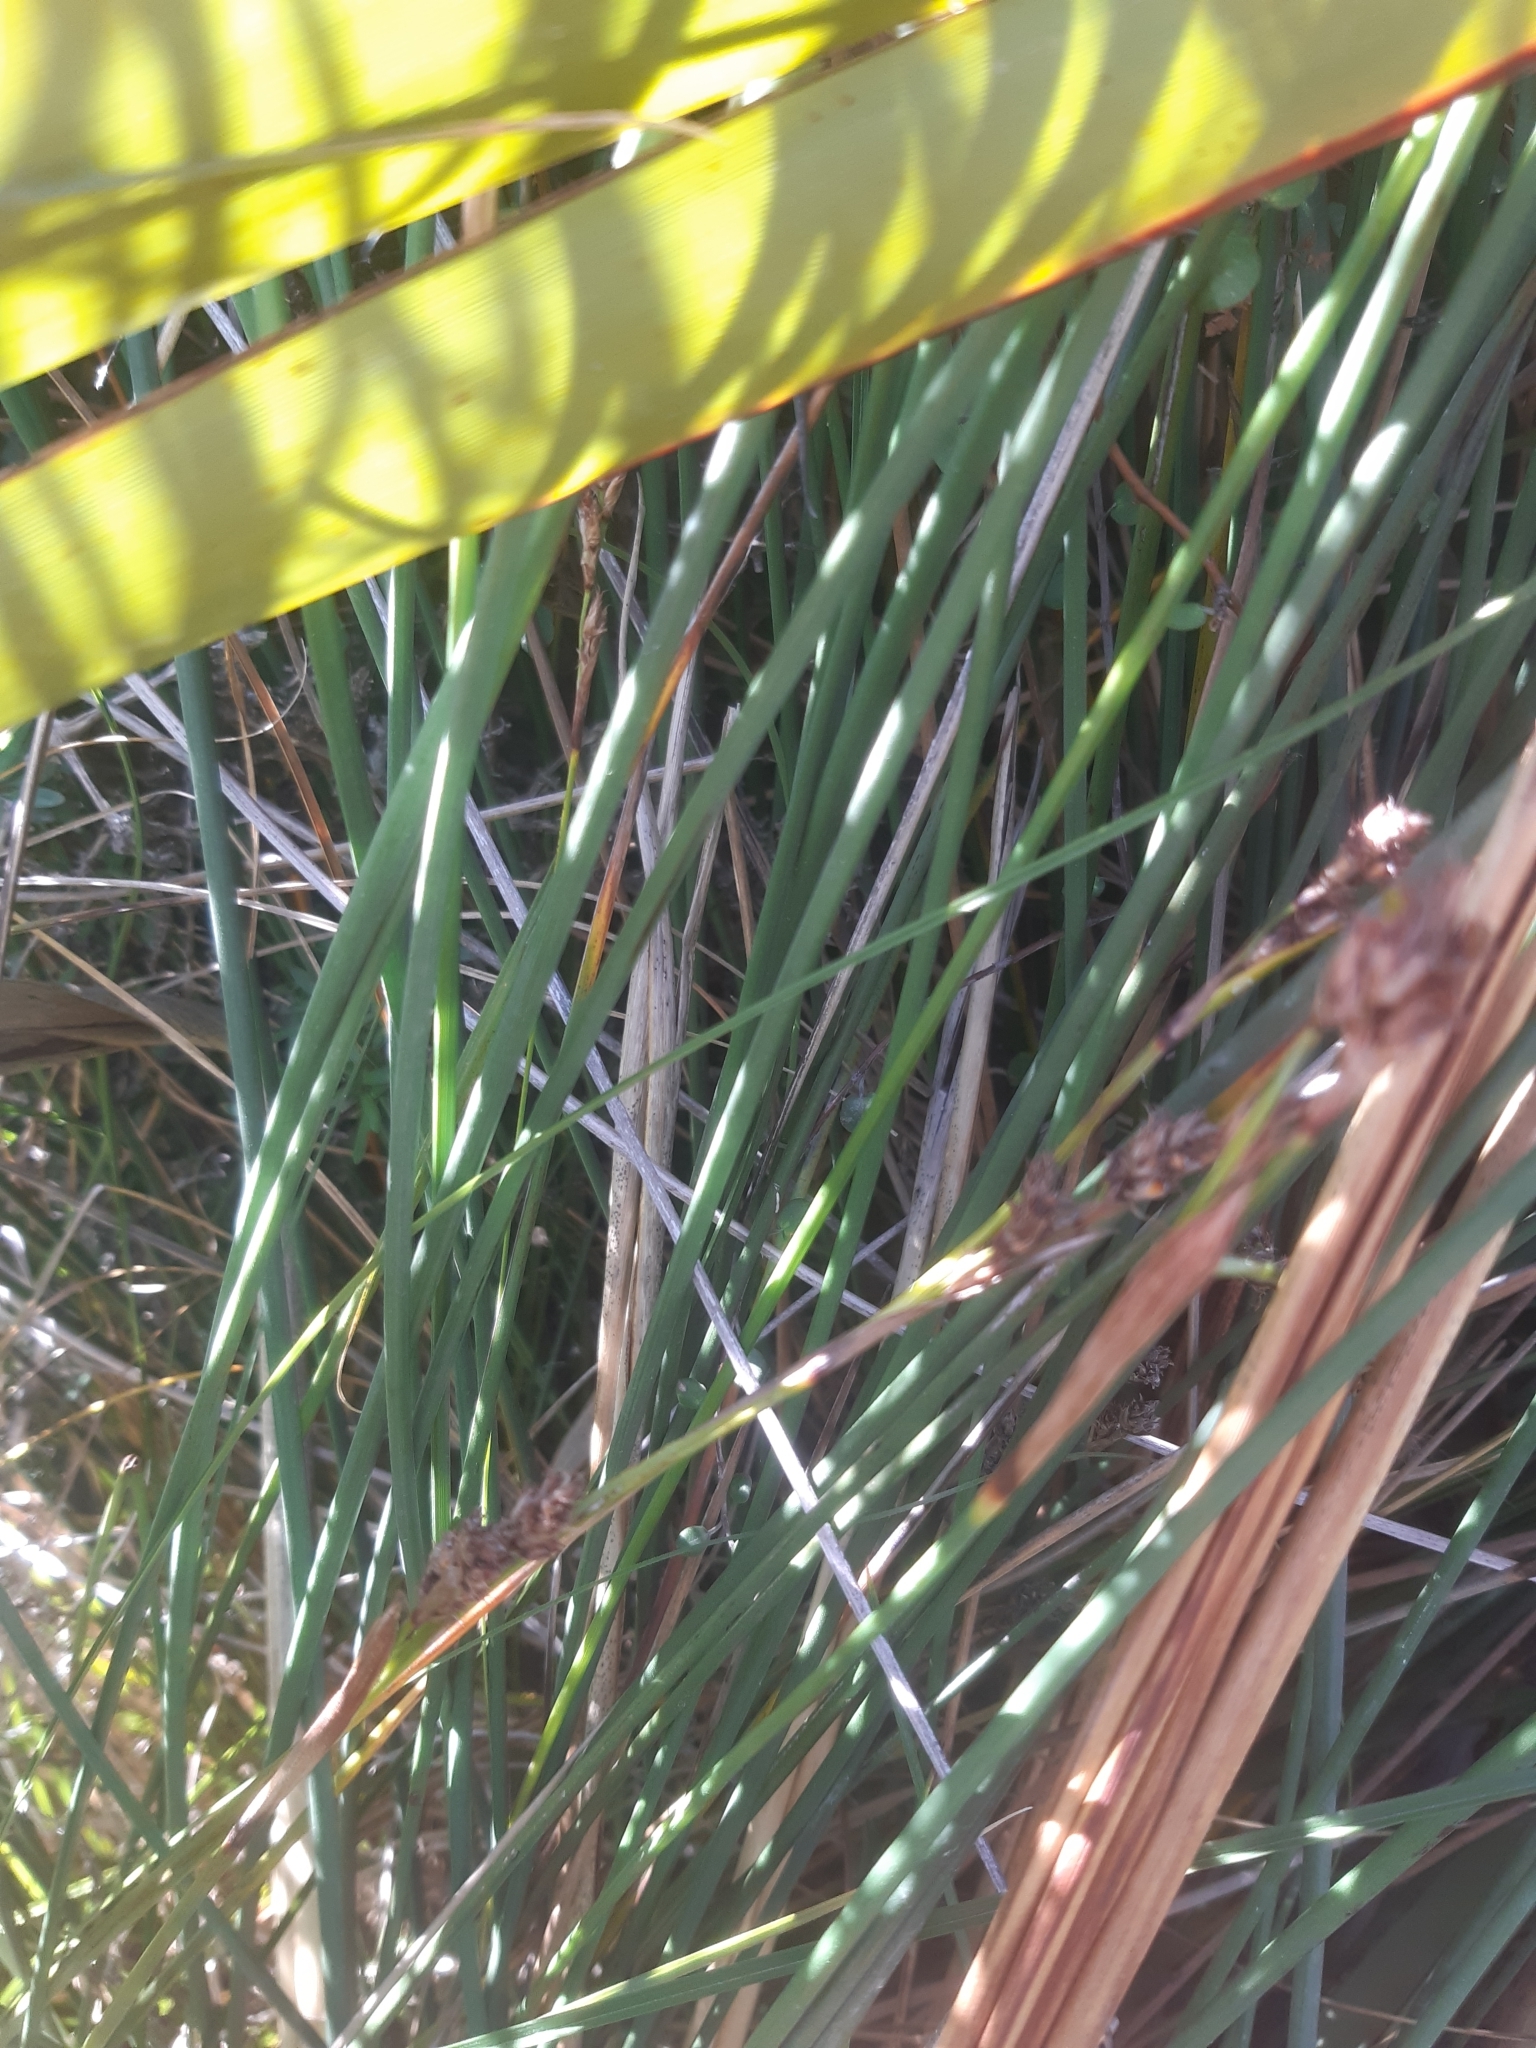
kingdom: Plantae
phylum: Tracheophyta
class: Liliopsida
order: Poales
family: Cyperaceae
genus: Machaerina
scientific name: Machaerina rubiginosa
